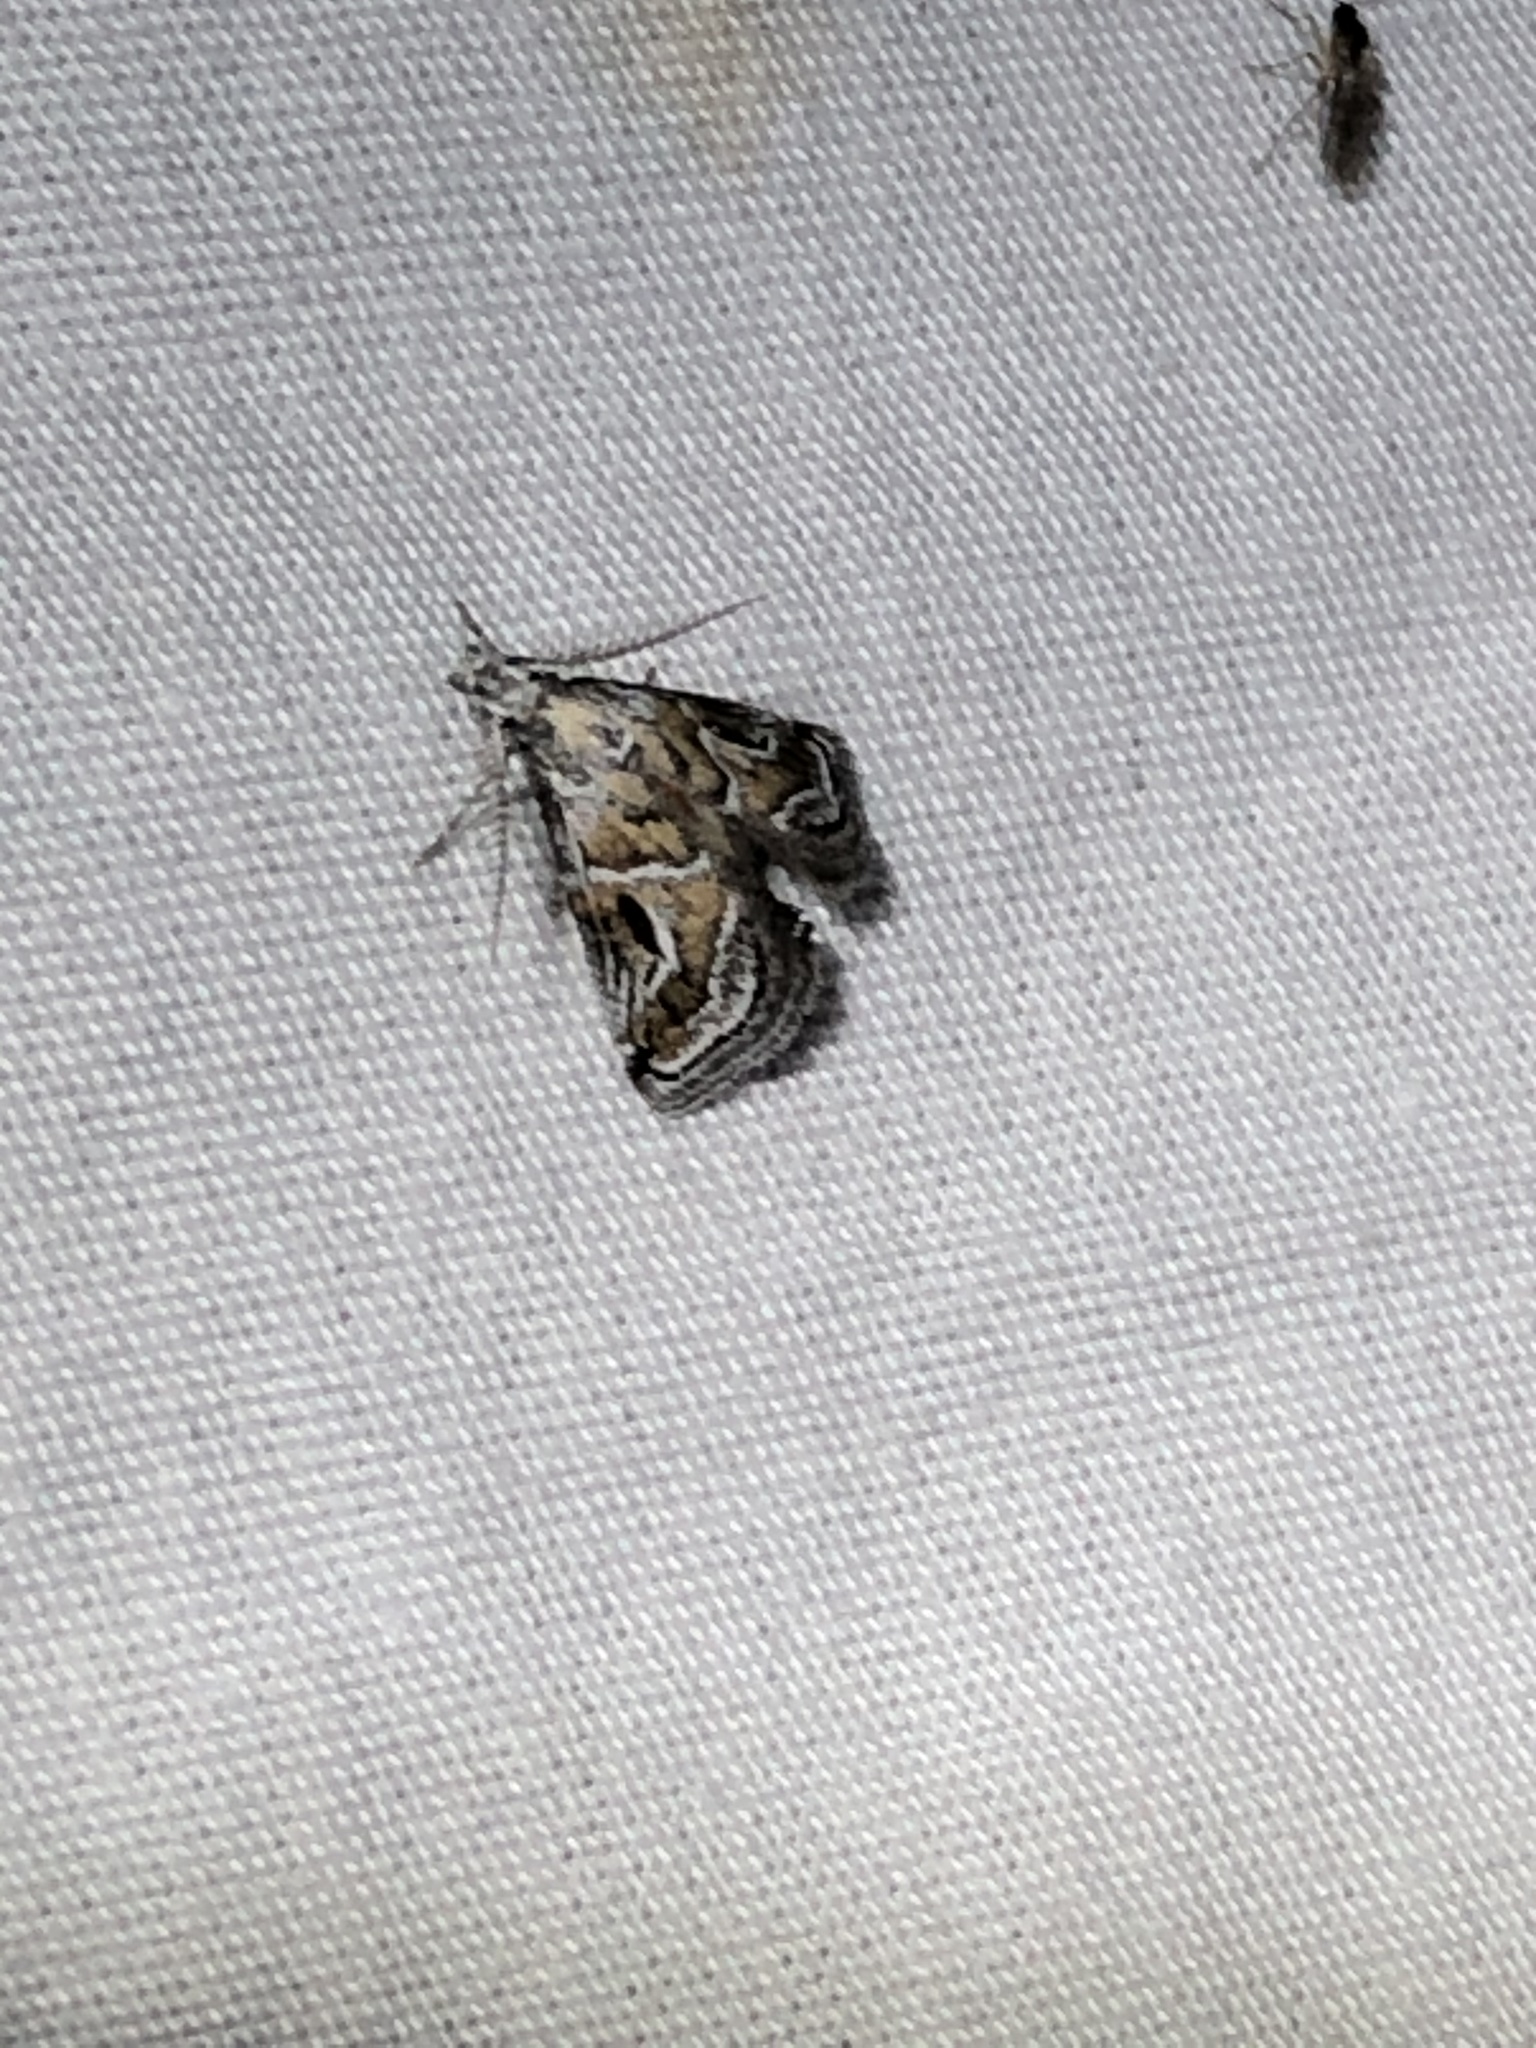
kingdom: Animalia
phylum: Arthropoda
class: Insecta
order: Lepidoptera
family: Pyralidae
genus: Alpheias
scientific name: Alpheias Decaturia pectinalis
